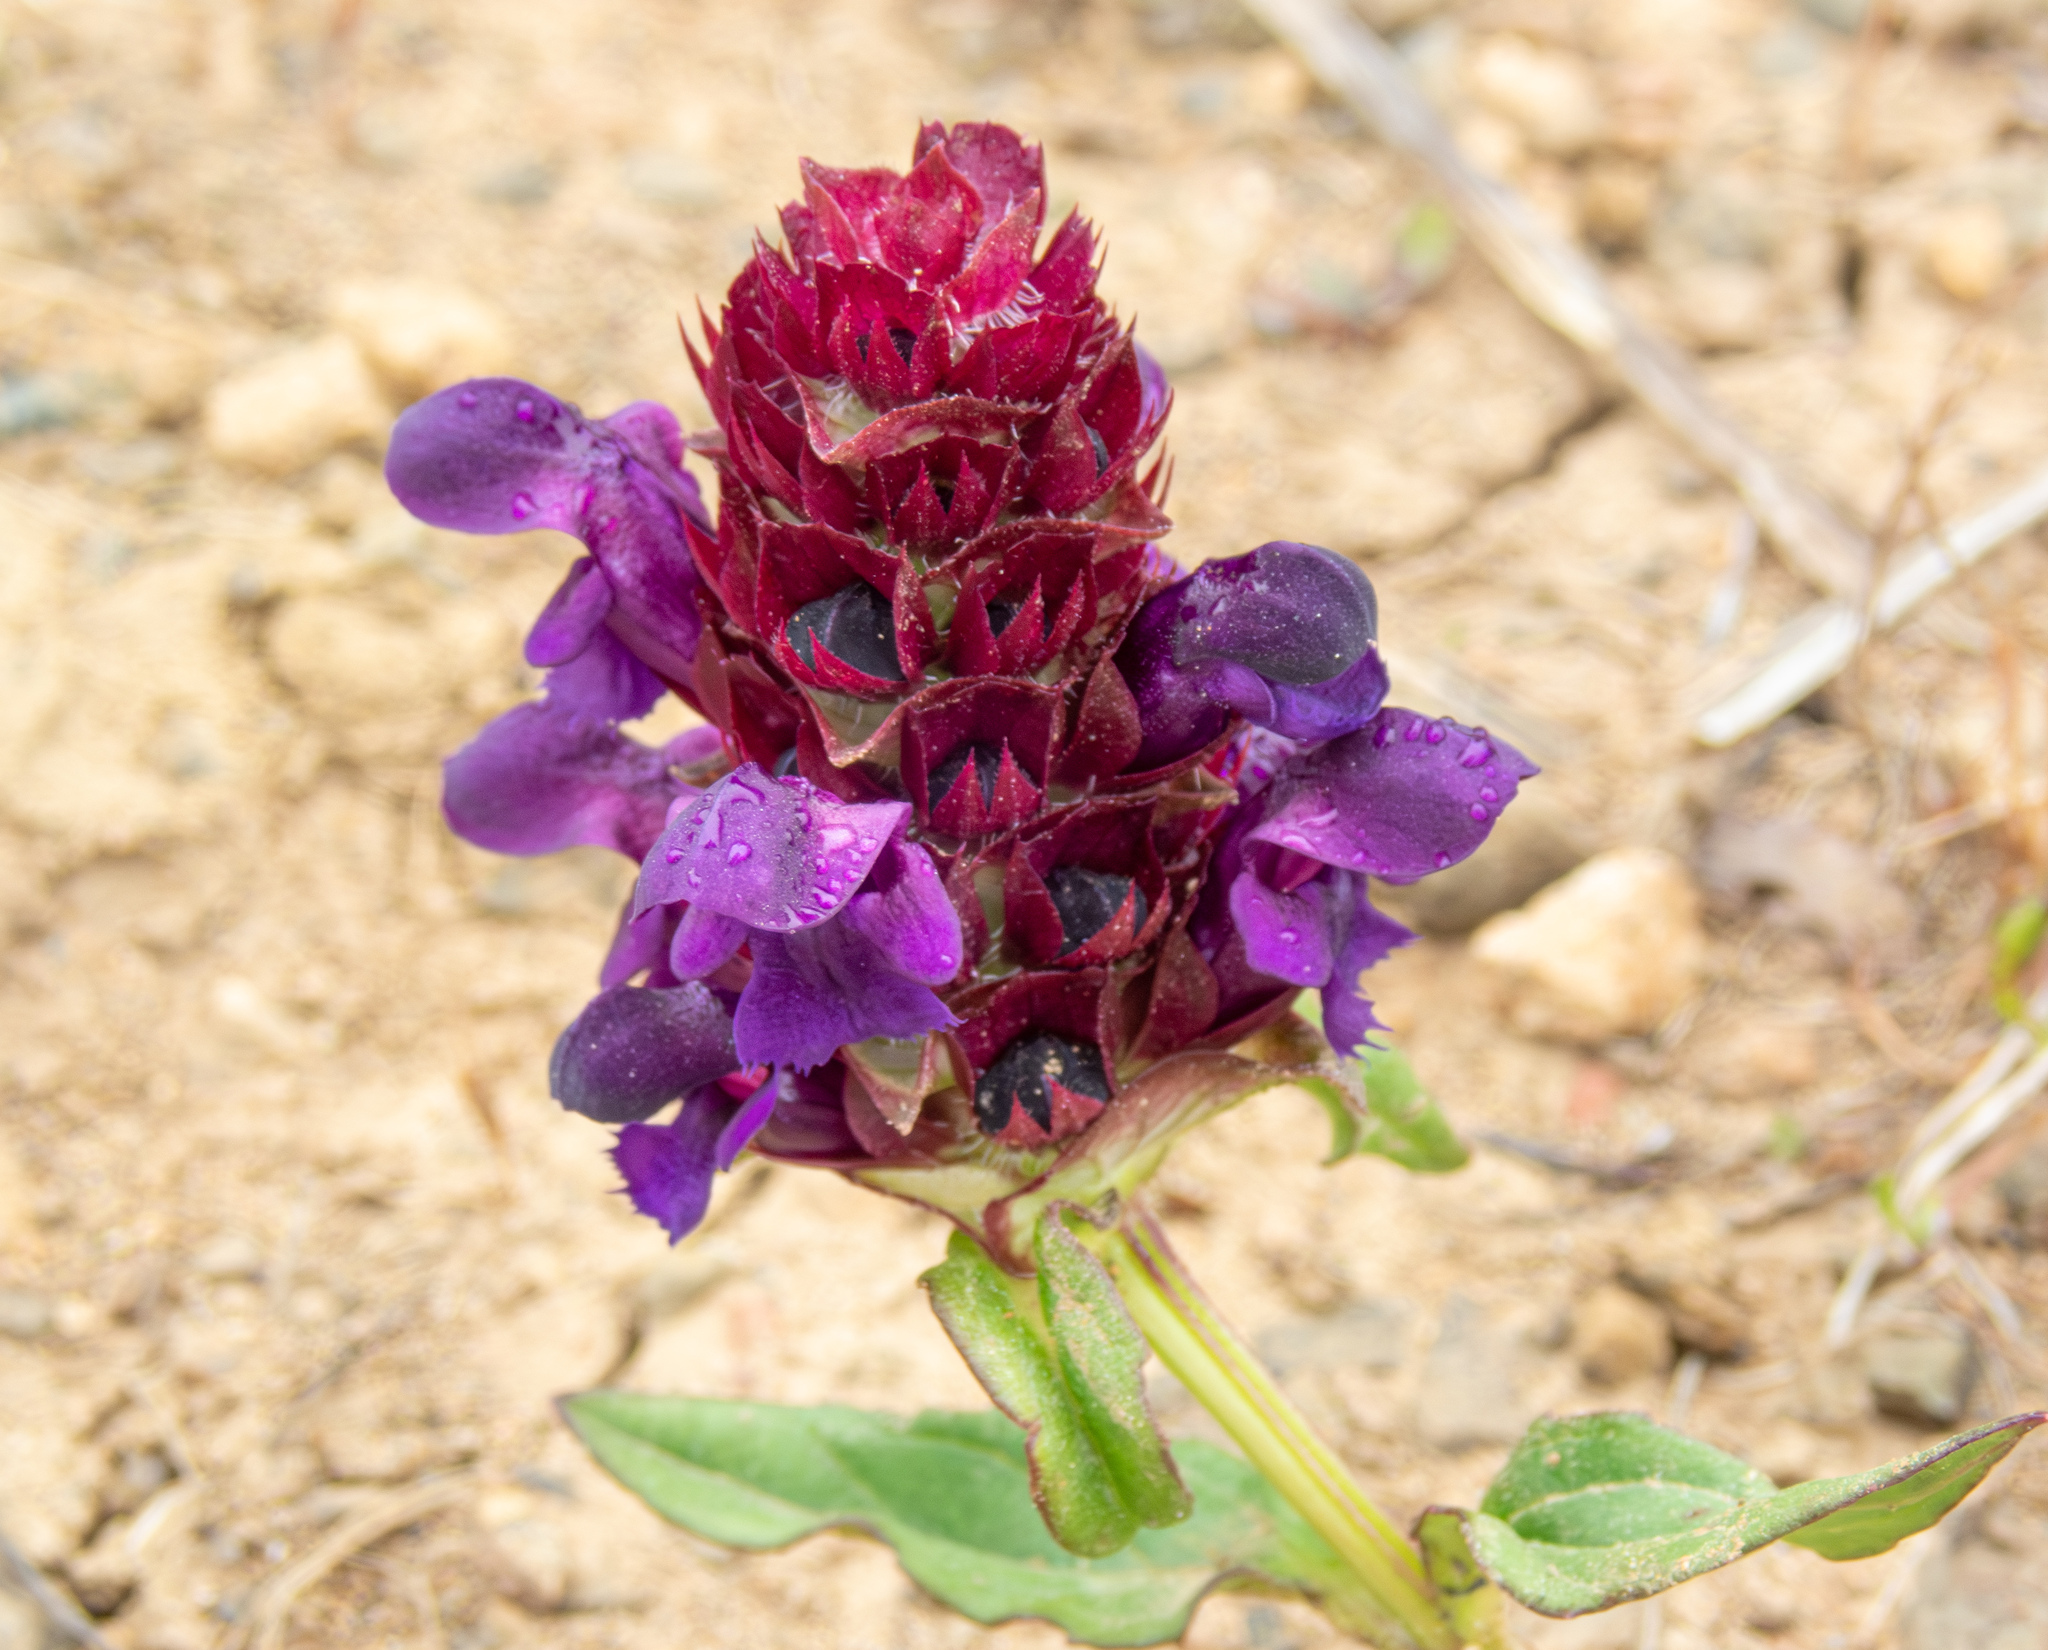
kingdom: Plantae
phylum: Tracheophyta
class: Magnoliopsida
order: Lamiales
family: Lamiaceae
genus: Prunella
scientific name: Prunella vulgaris
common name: Heal-all
